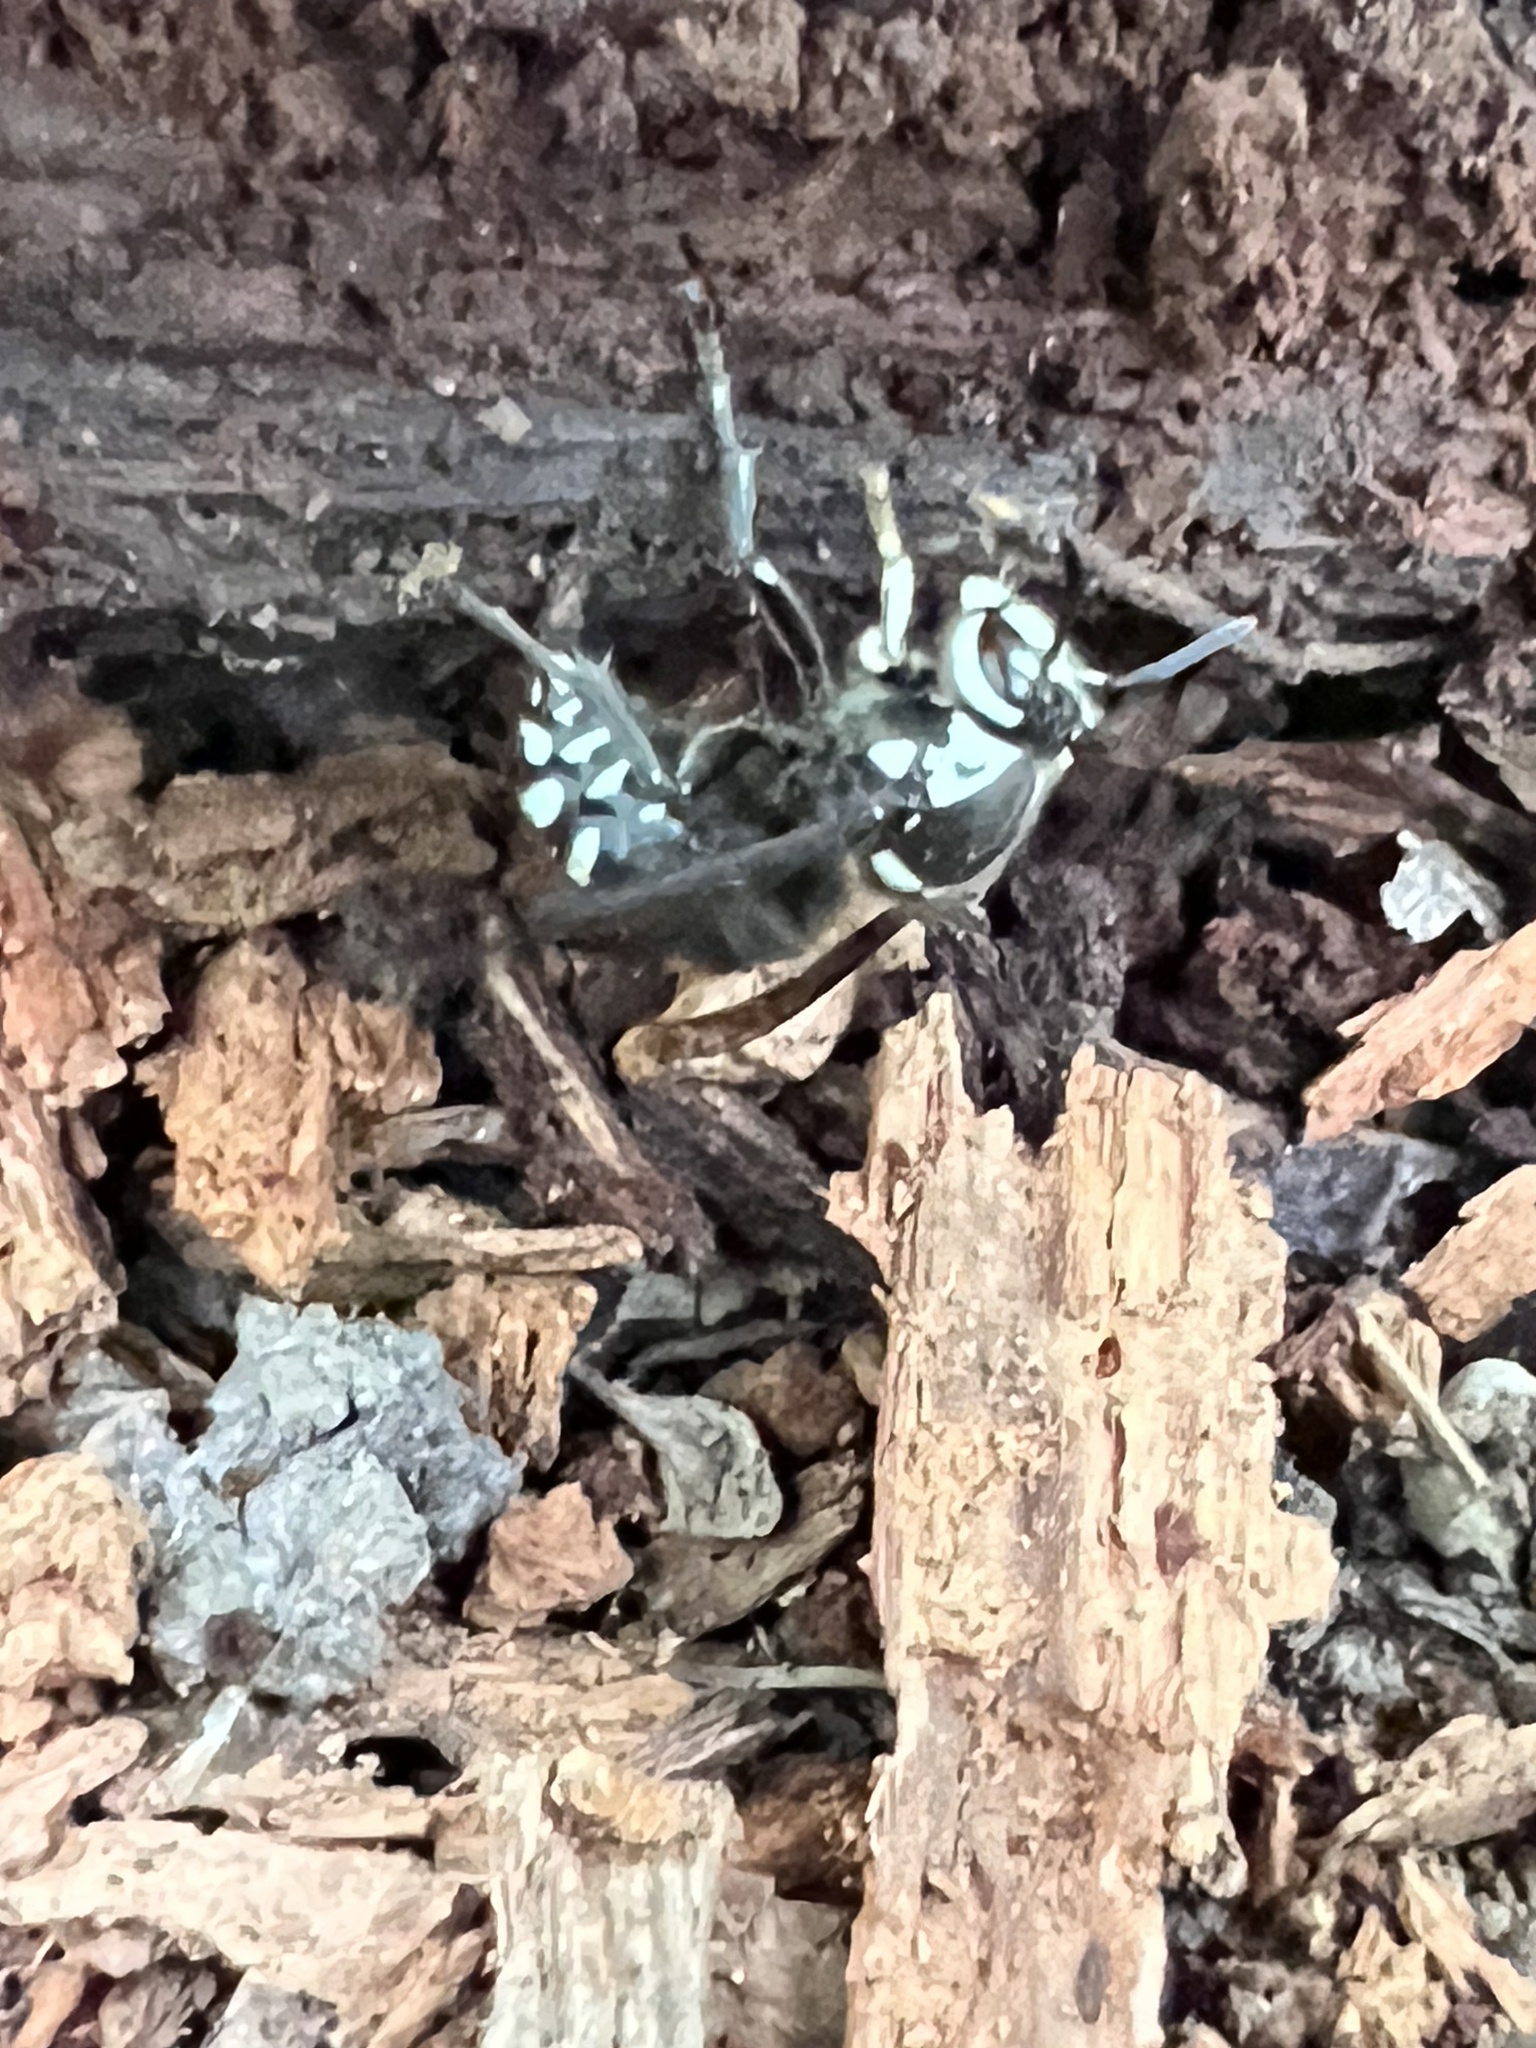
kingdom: Animalia
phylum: Arthropoda
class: Insecta
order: Hymenoptera
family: Vespidae
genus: Dolichovespula
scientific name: Dolichovespula maculata
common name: Bald-faced hornet
